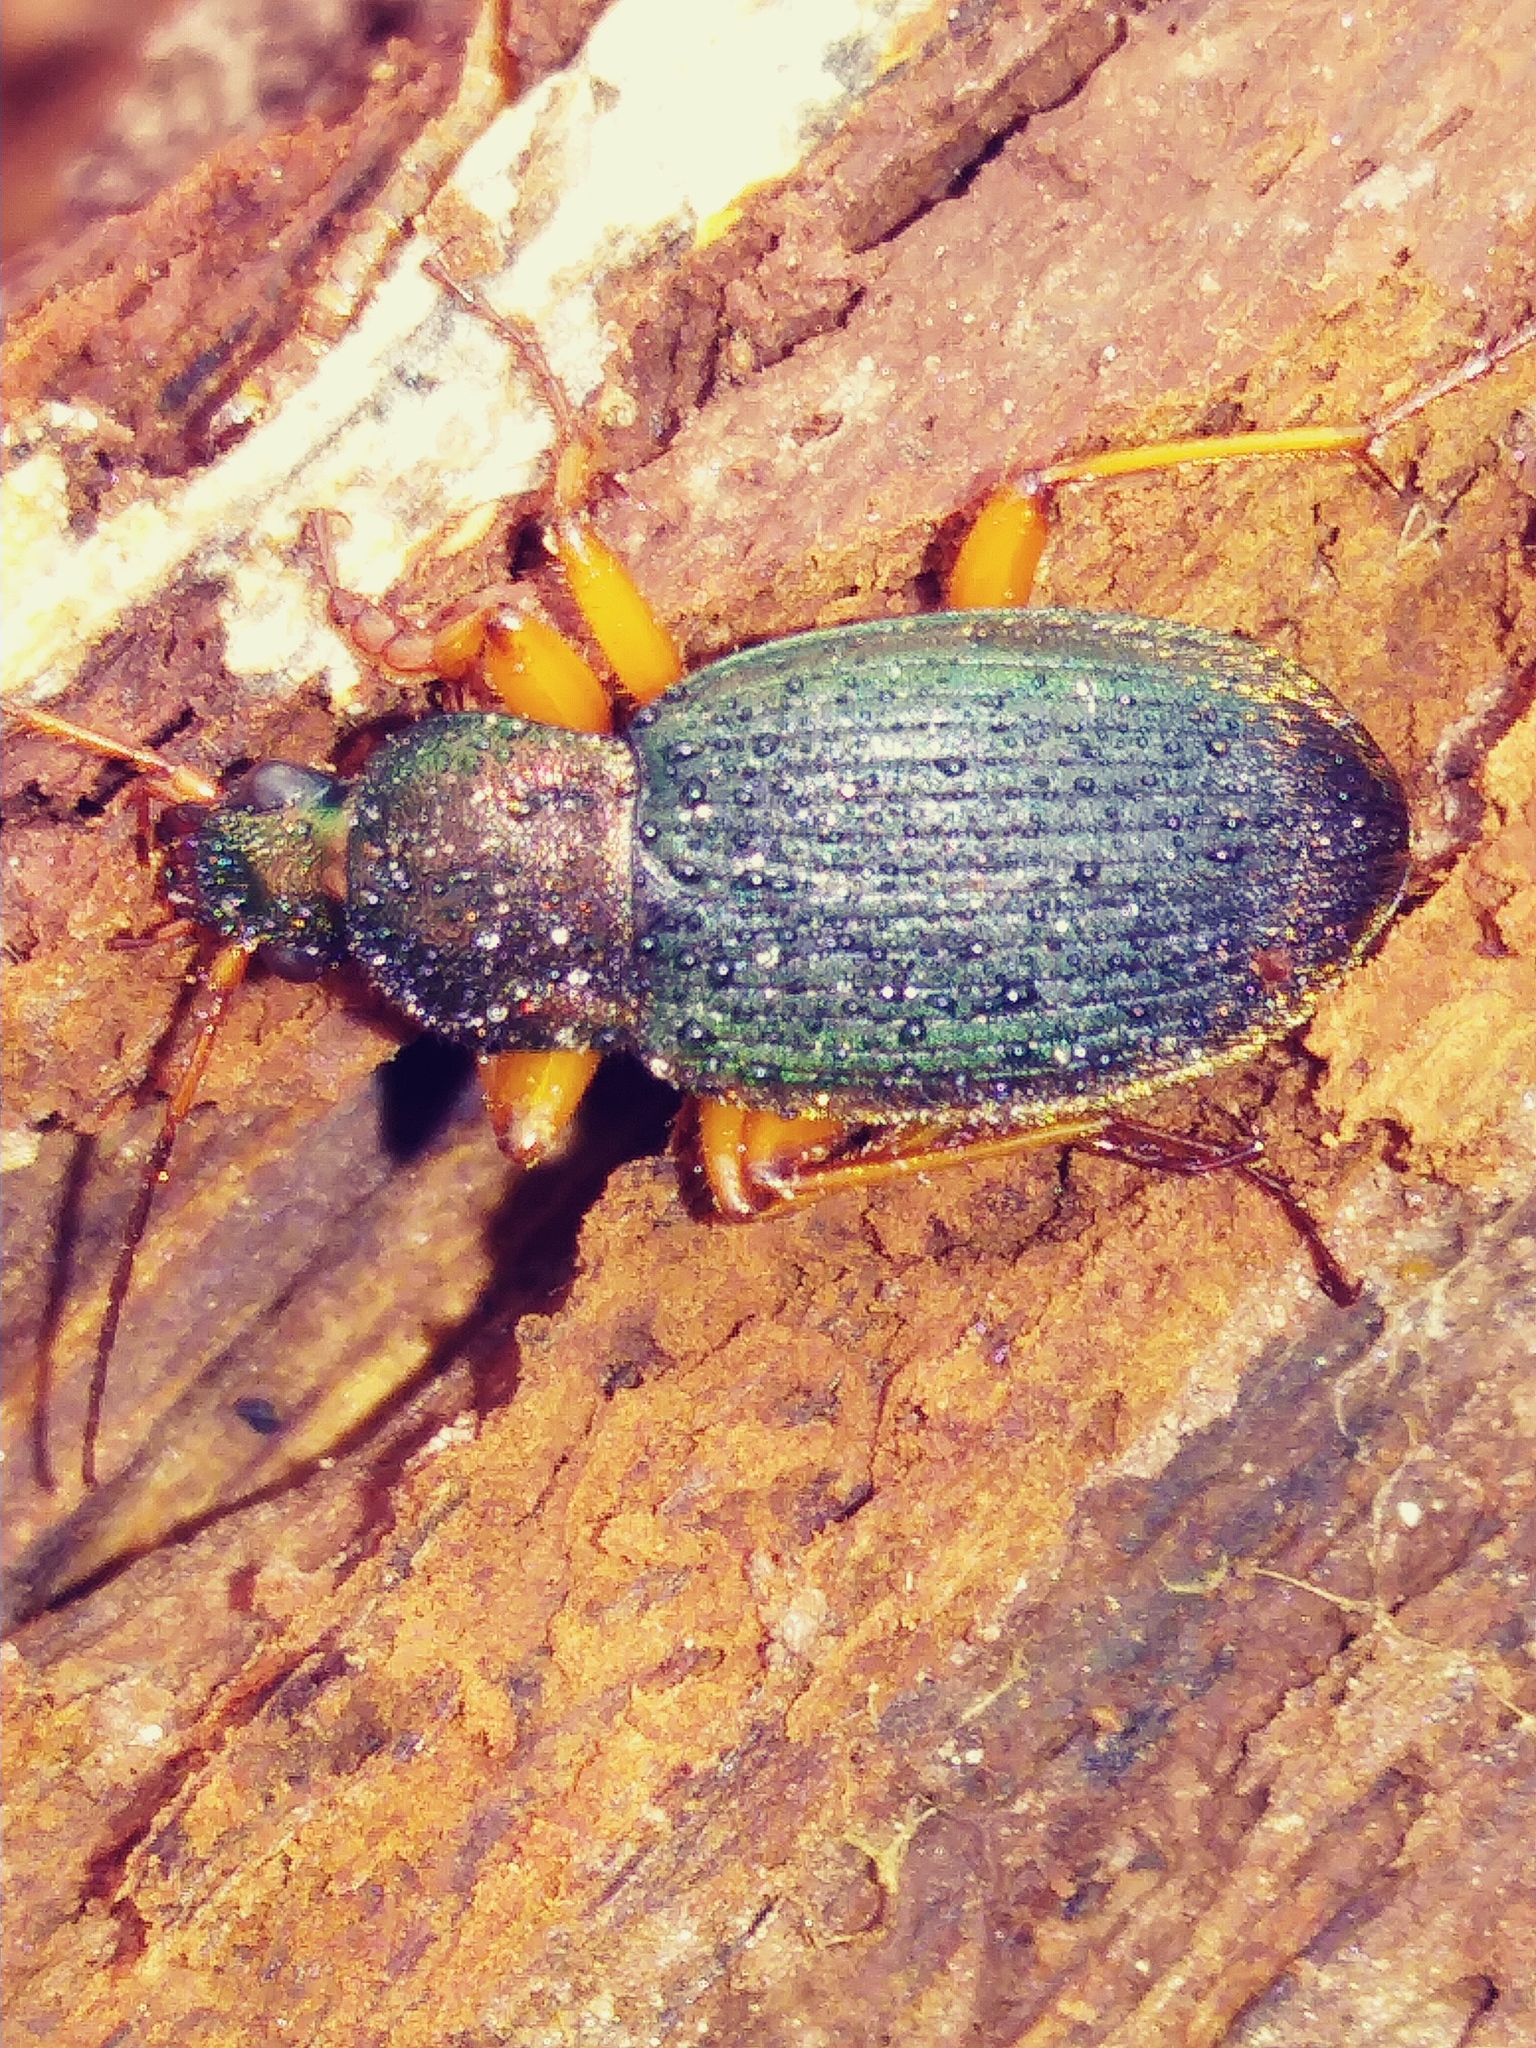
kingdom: Animalia
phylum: Arthropoda
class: Insecta
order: Coleoptera
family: Carabidae
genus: Chlaenius
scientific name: Chlaenius aestivus
